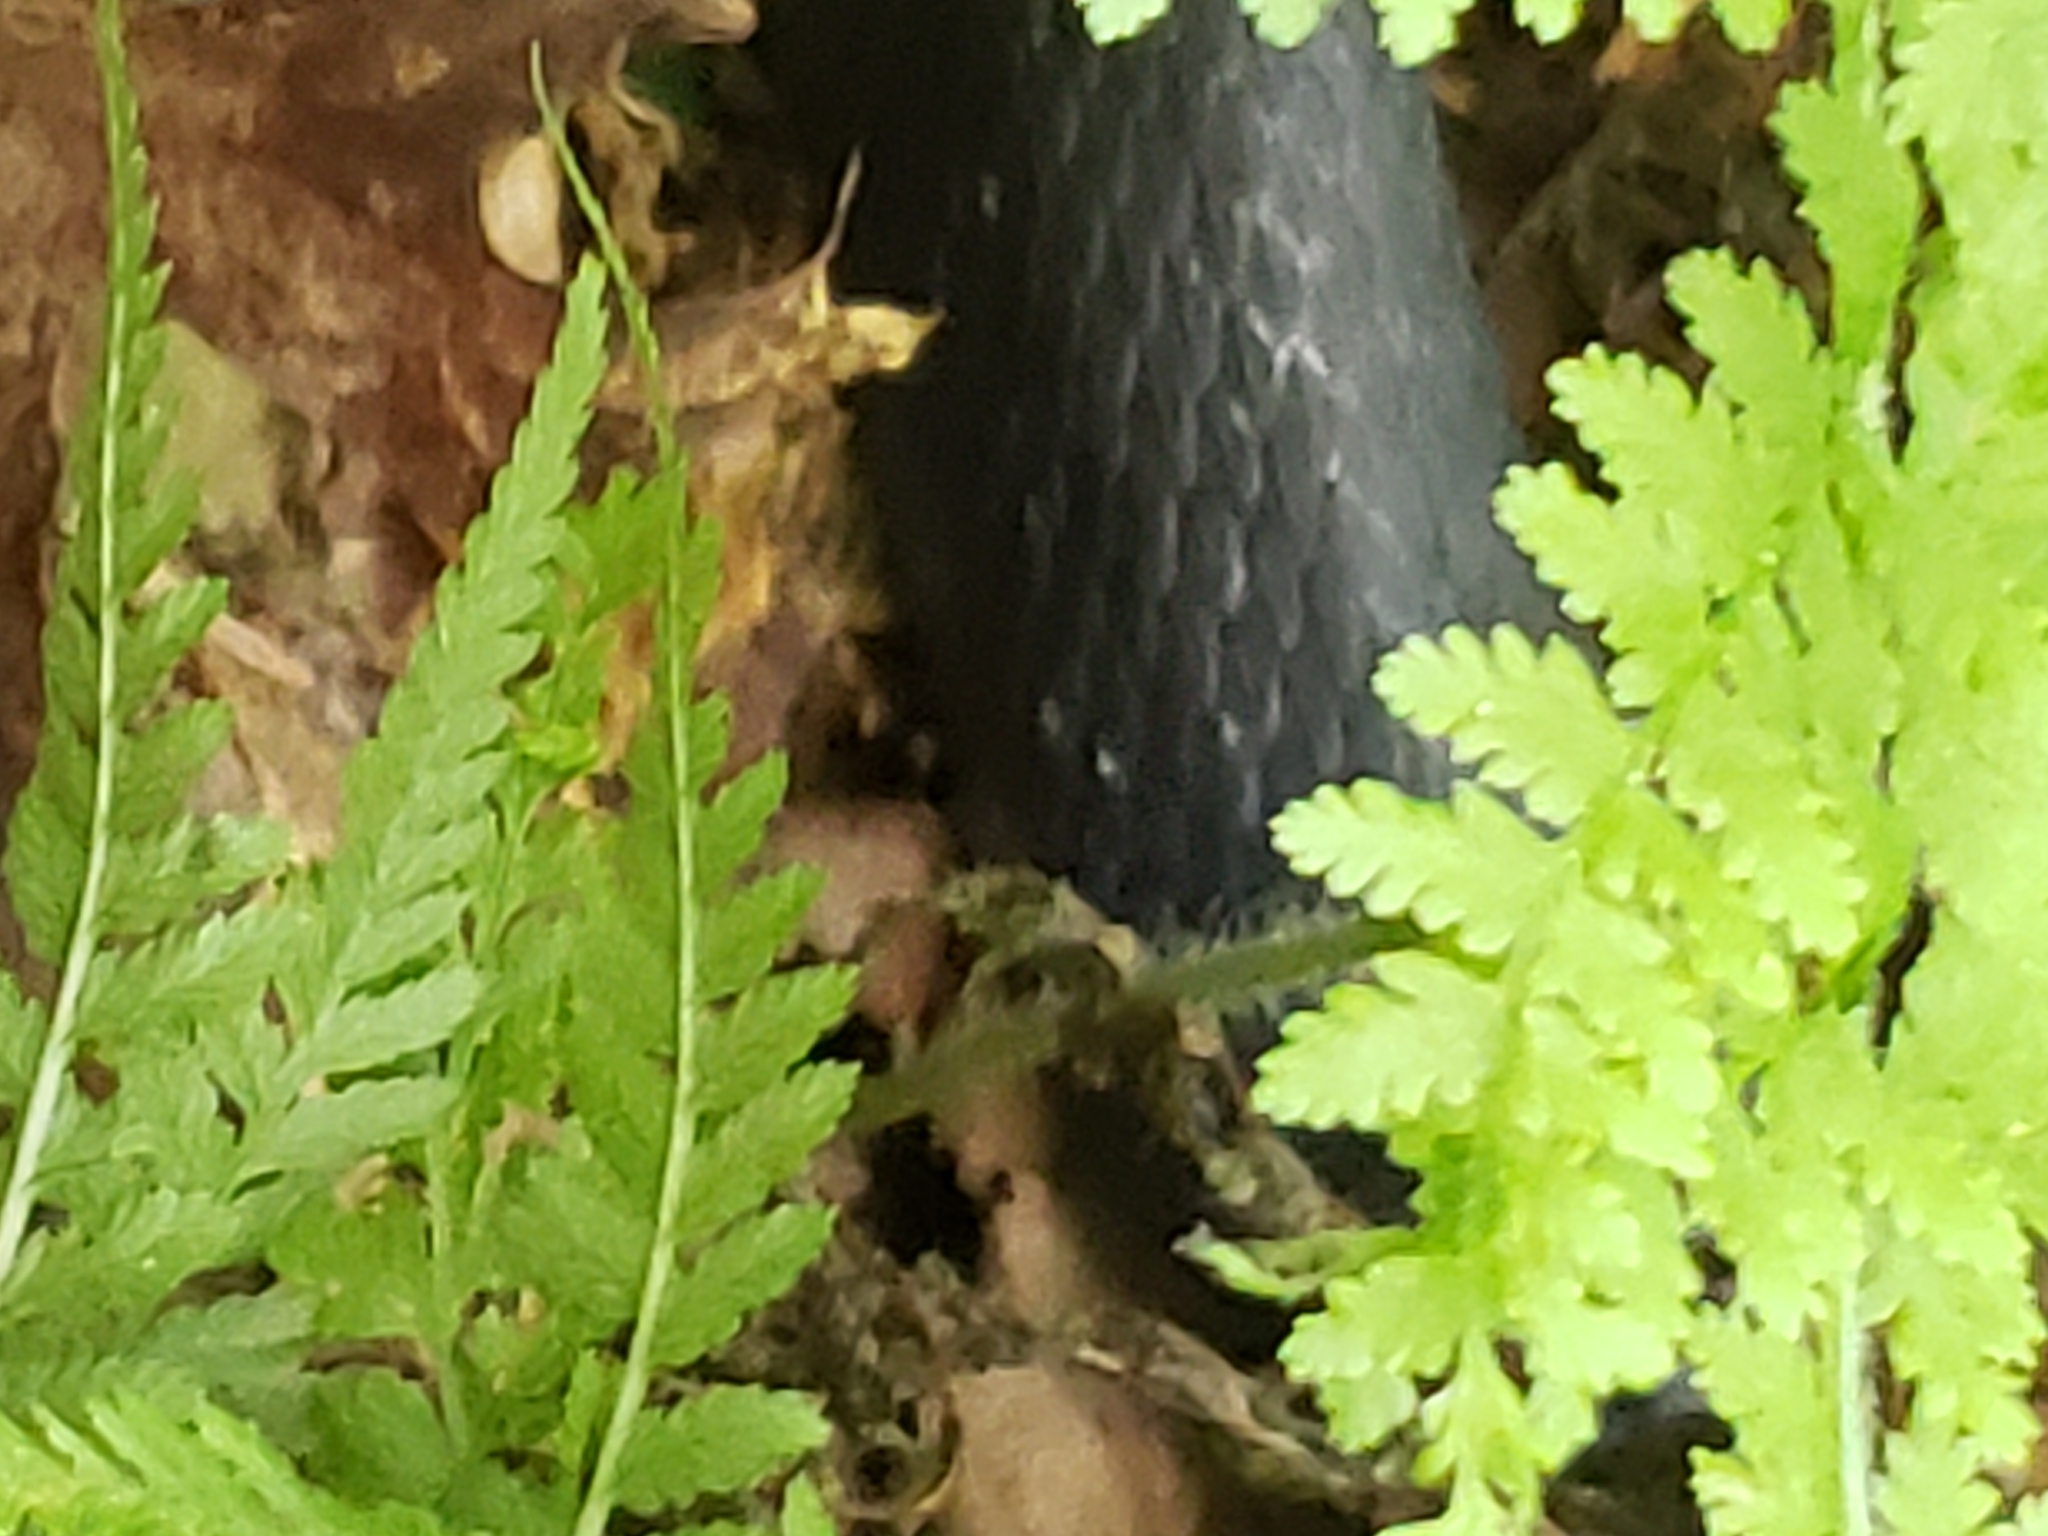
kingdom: Animalia
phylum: Chordata
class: Squamata
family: Colubridae
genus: Pantherophis
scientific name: Pantherophis alleghaniensis
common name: Eastern rat snake
